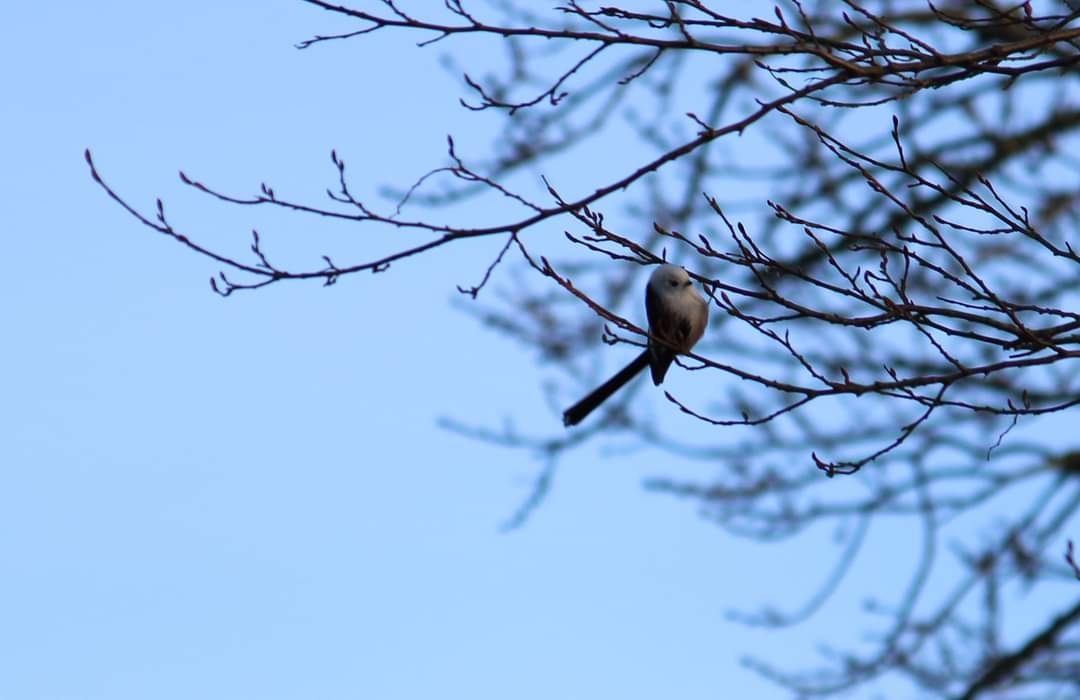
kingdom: Animalia
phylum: Chordata
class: Aves
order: Passeriformes
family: Aegithalidae
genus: Aegithalos
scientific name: Aegithalos caudatus
